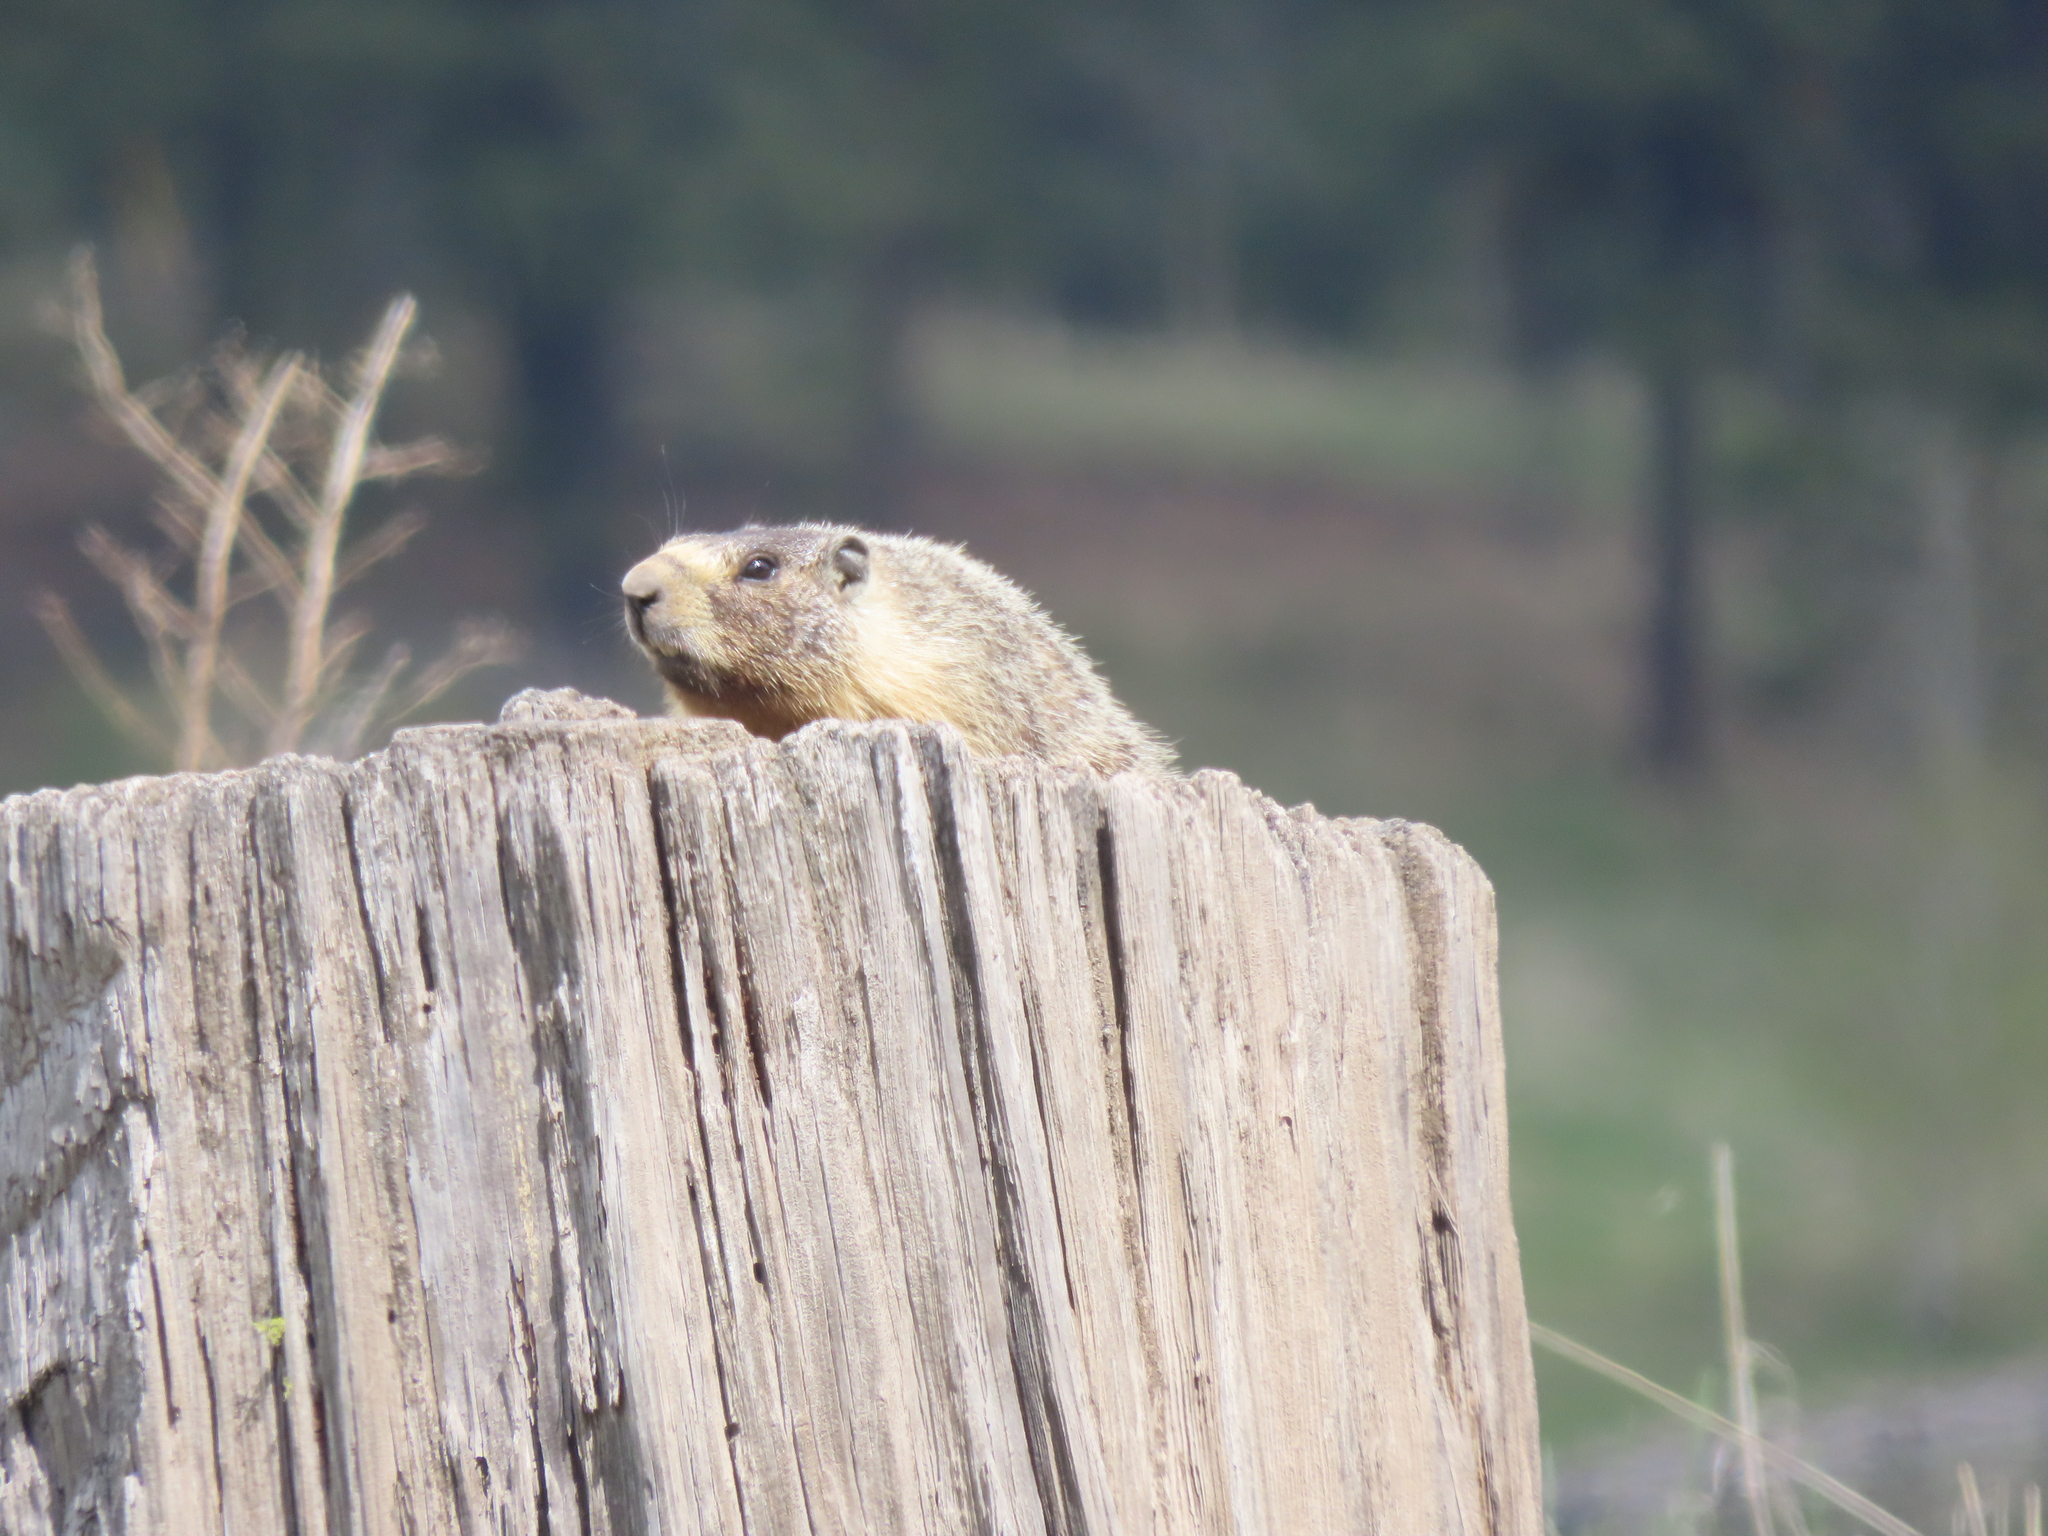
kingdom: Animalia
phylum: Chordata
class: Mammalia
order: Rodentia
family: Sciuridae
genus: Marmota
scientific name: Marmota flaviventris
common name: Yellow-bellied marmot
